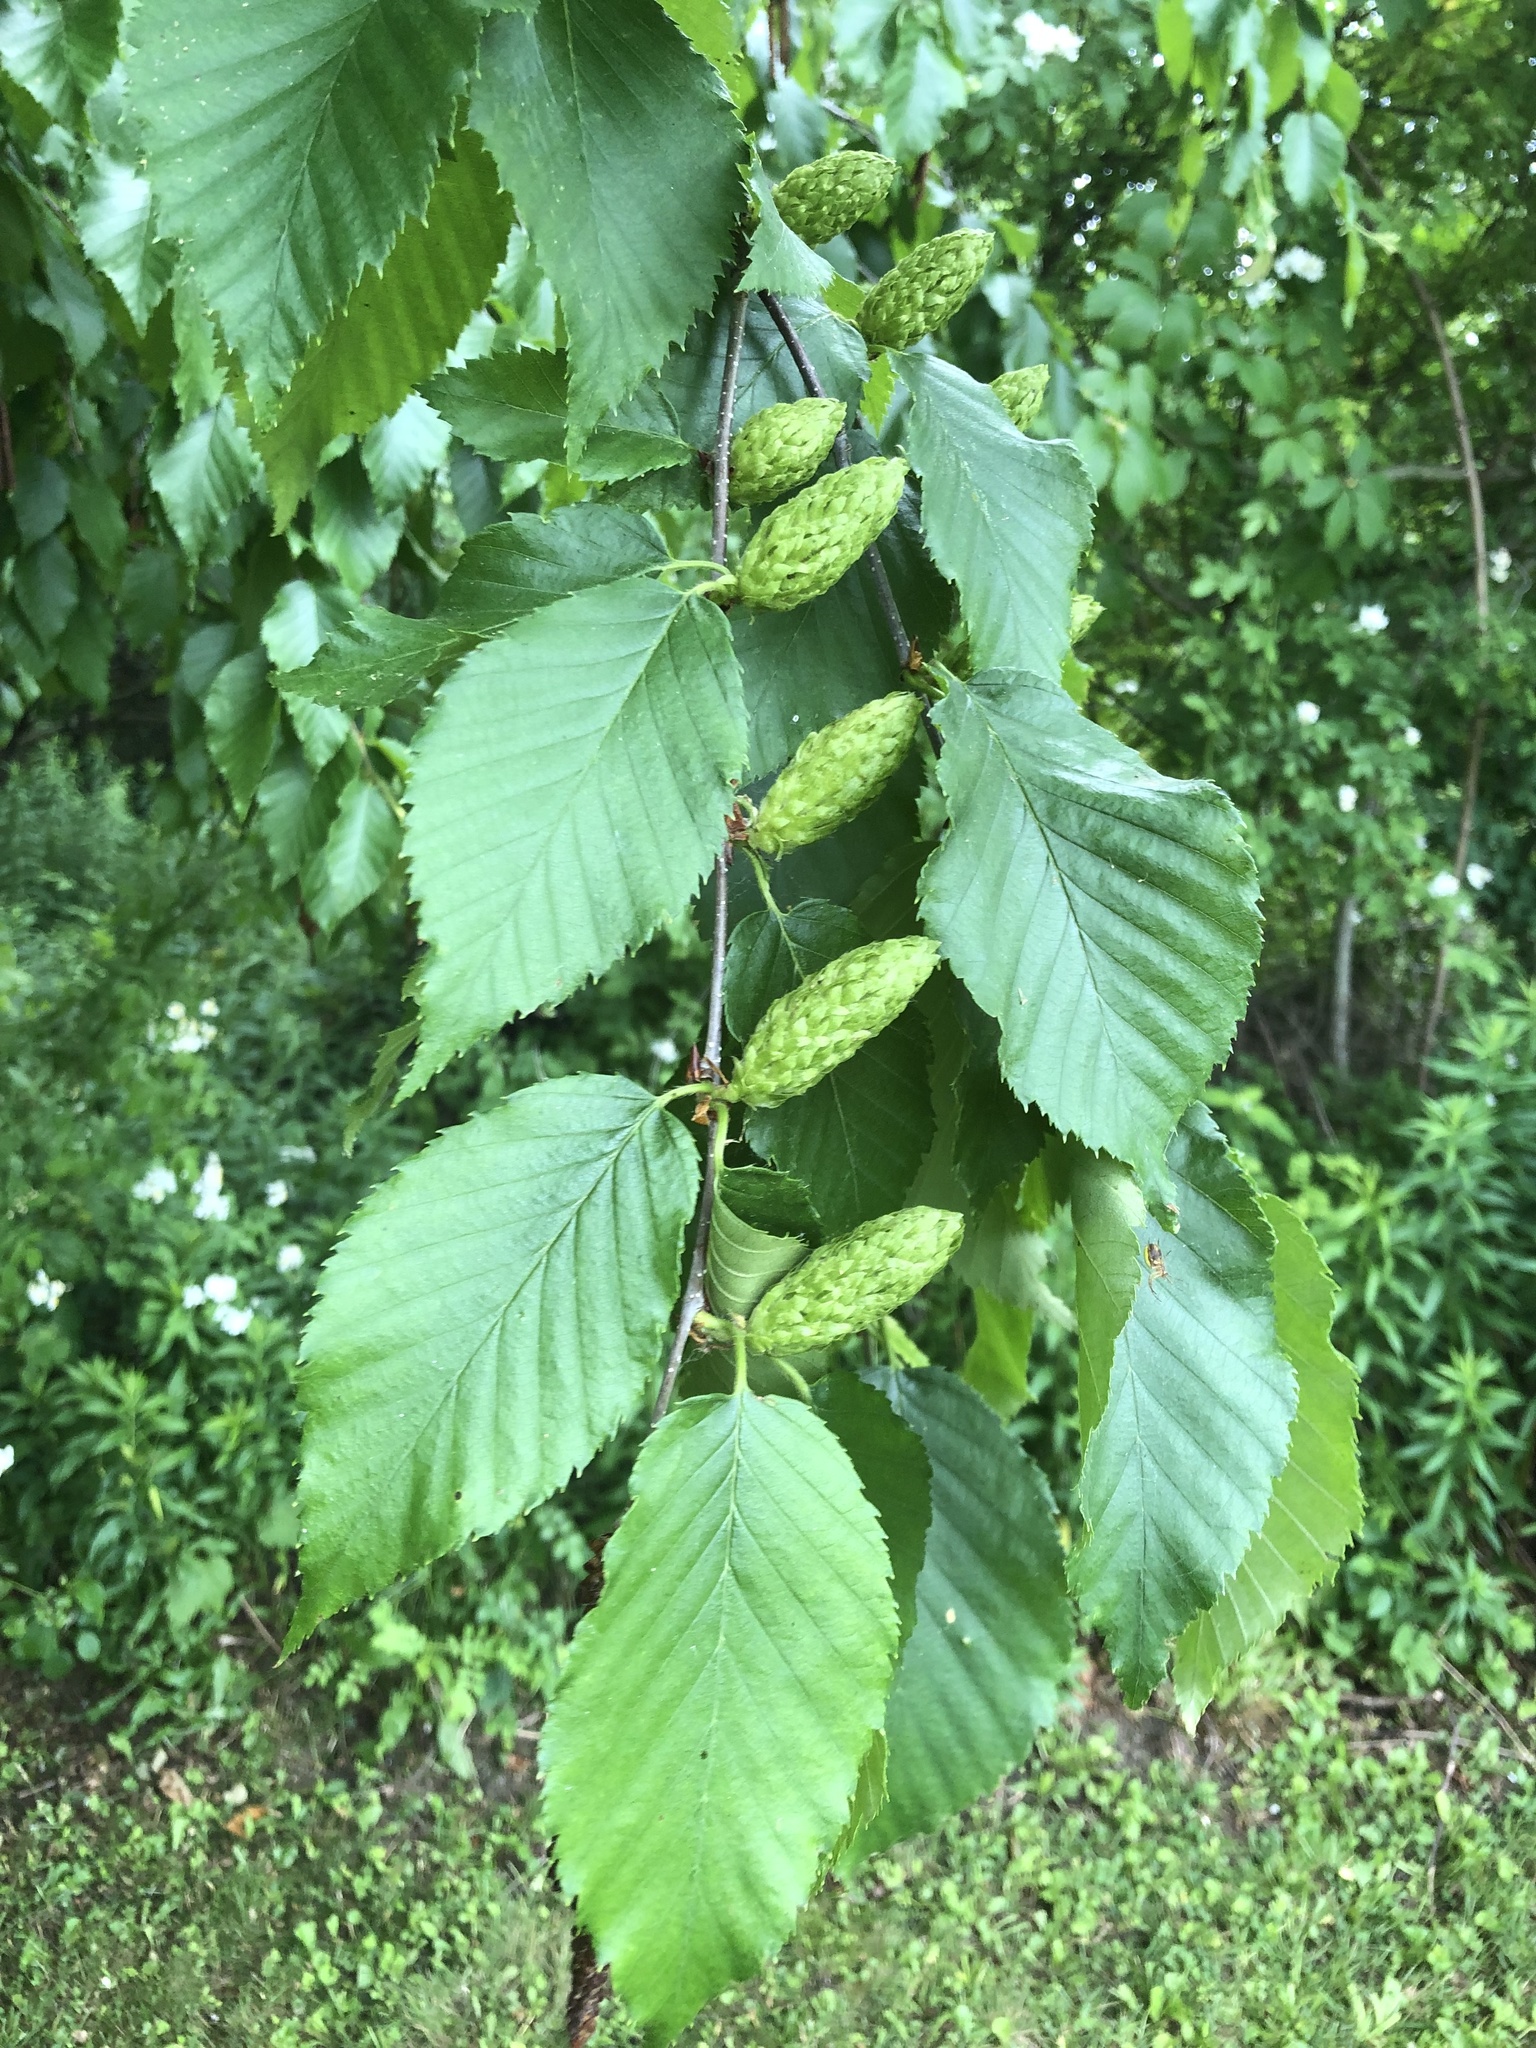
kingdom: Plantae
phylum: Tracheophyta
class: Magnoliopsida
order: Fagales
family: Betulaceae
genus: Betula
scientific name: Betula alleghaniensis
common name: Yellow birch
